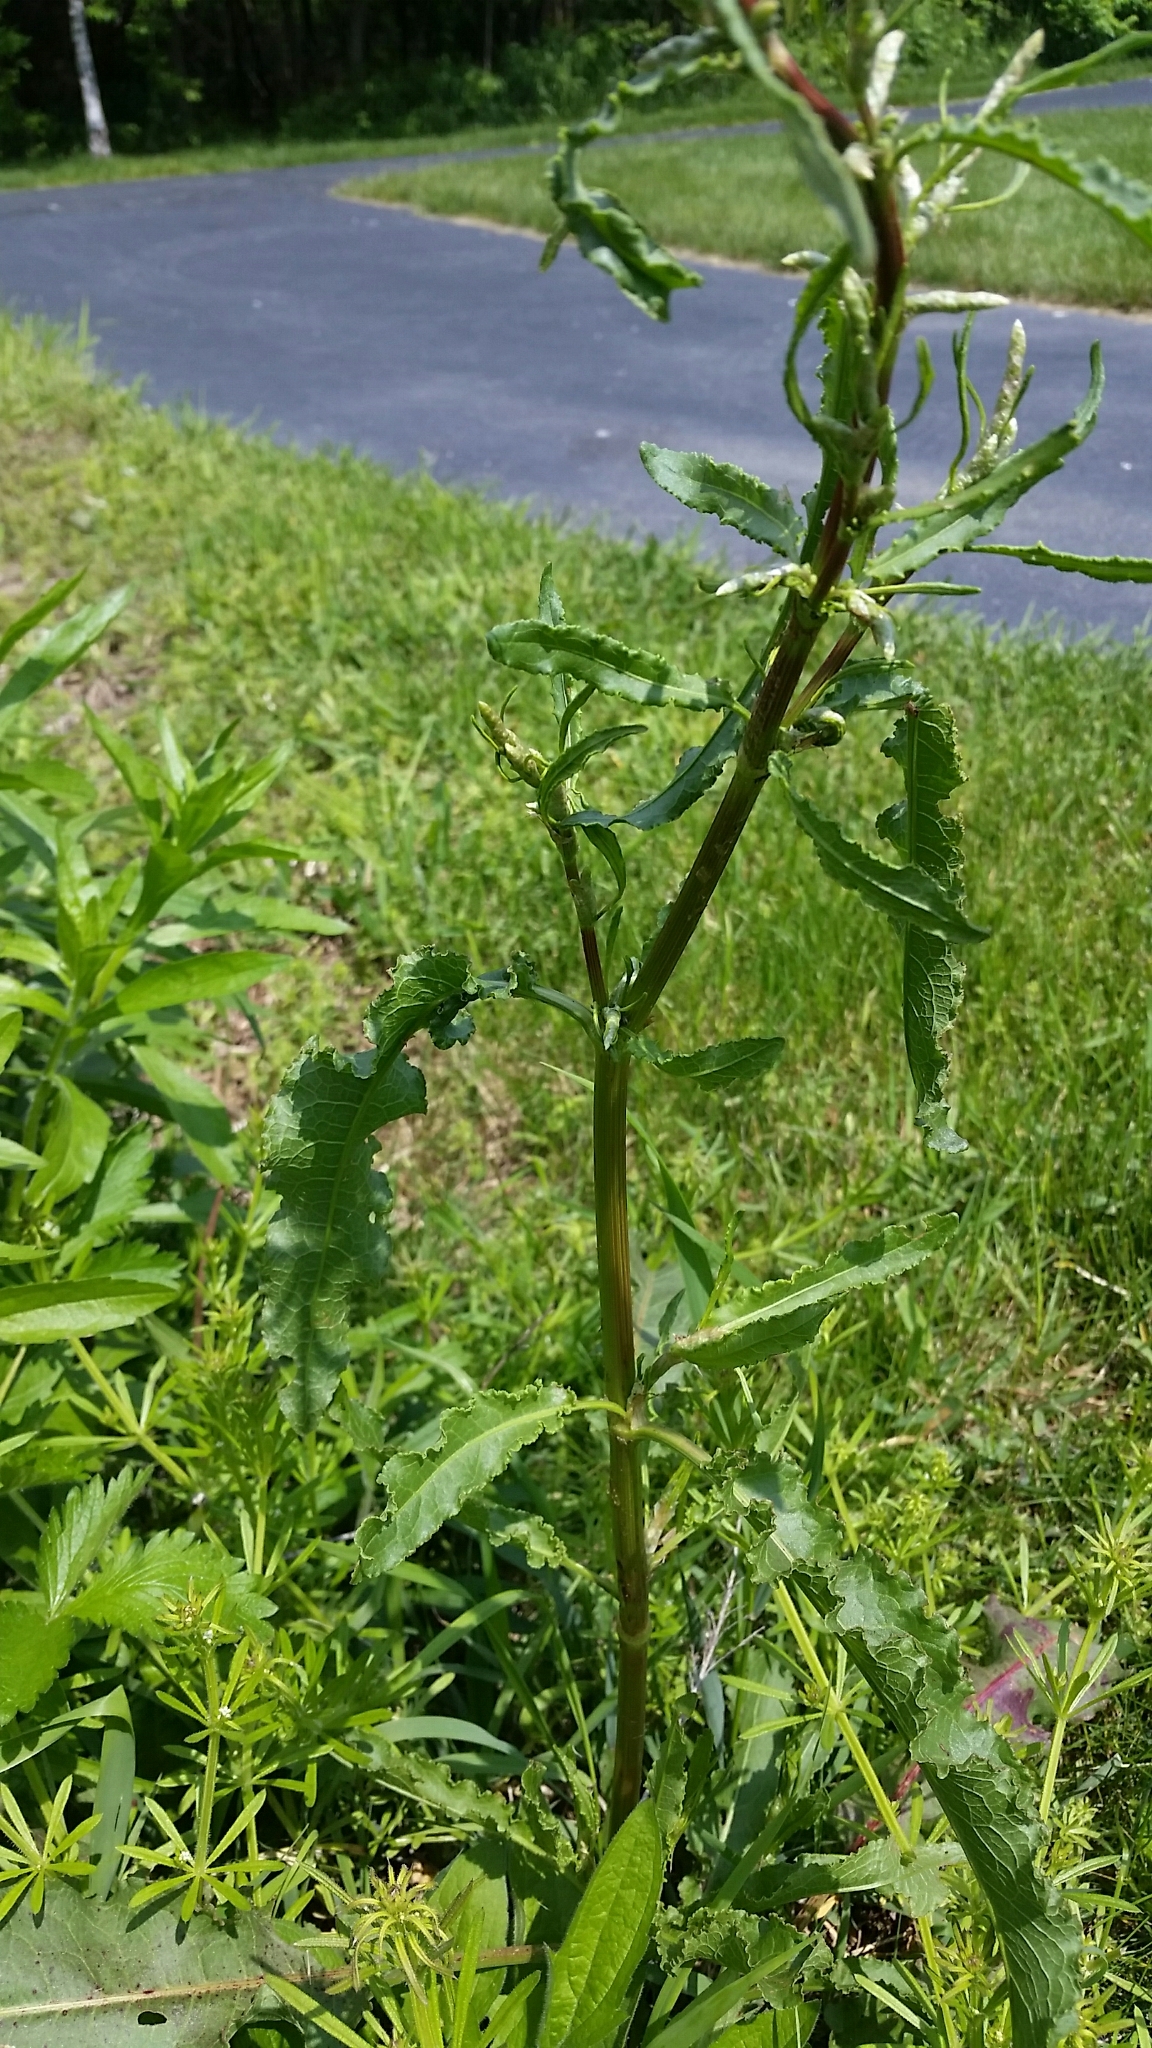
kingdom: Plantae
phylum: Tracheophyta
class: Magnoliopsida
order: Caryophyllales
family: Polygonaceae
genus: Rumex
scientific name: Rumex crispus
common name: Curled dock
